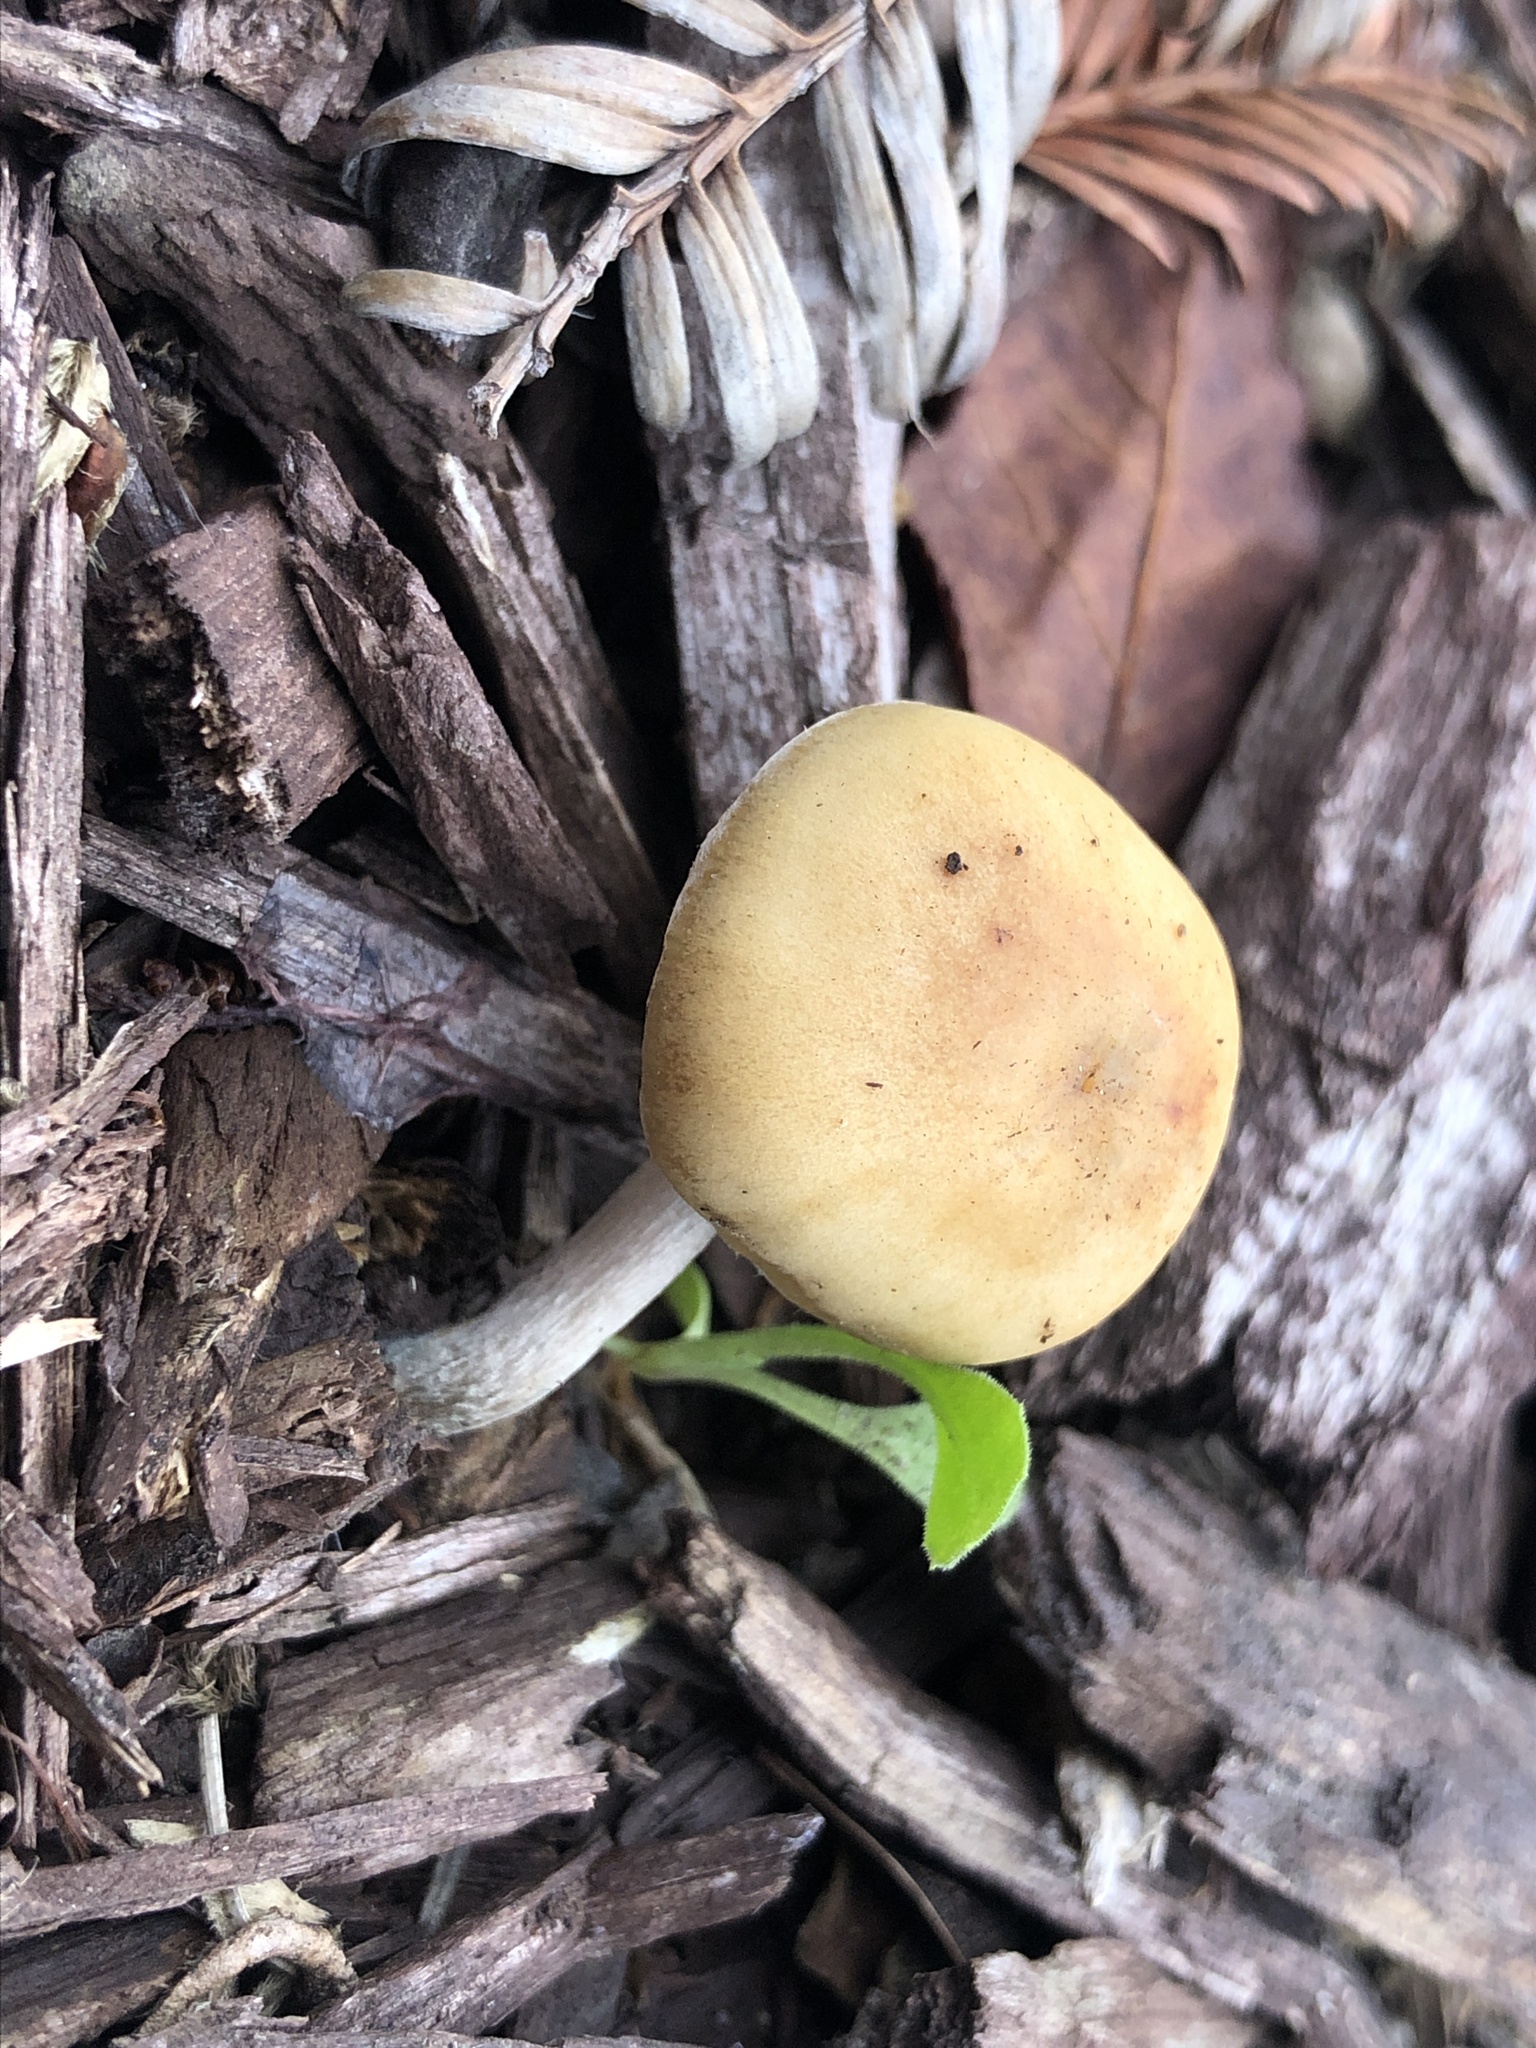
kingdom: Fungi
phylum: Basidiomycota
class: Agaricomycetes
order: Agaricales
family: Hymenogastraceae
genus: Psilocybe
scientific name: Psilocybe allenii
